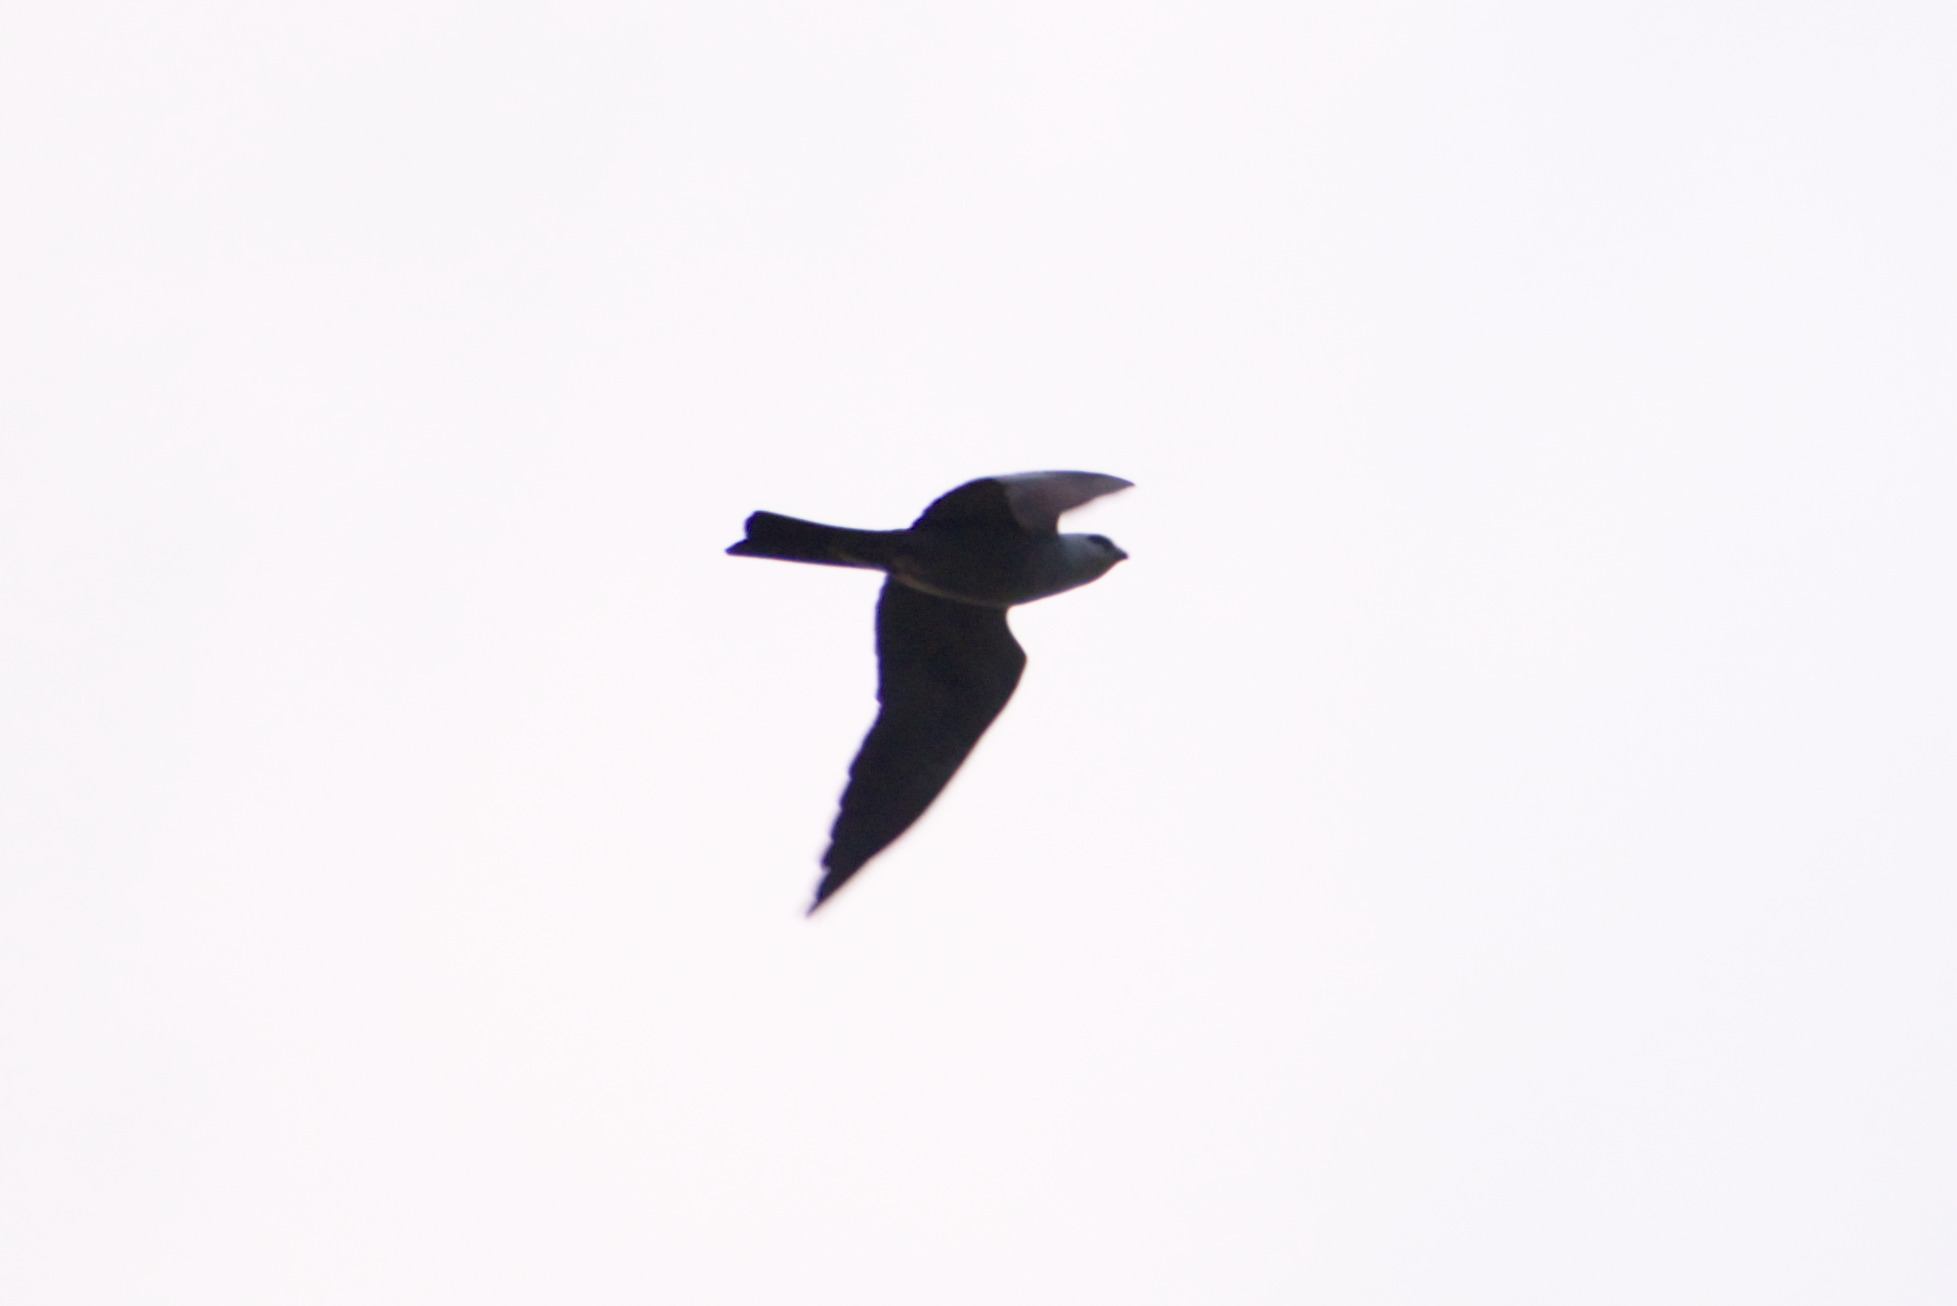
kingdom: Animalia
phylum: Chordata
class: Aves
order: Accipitriformes
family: Accipitridae
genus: Ictinia
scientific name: Ictinia mississippiensis
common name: Mississippi kite
